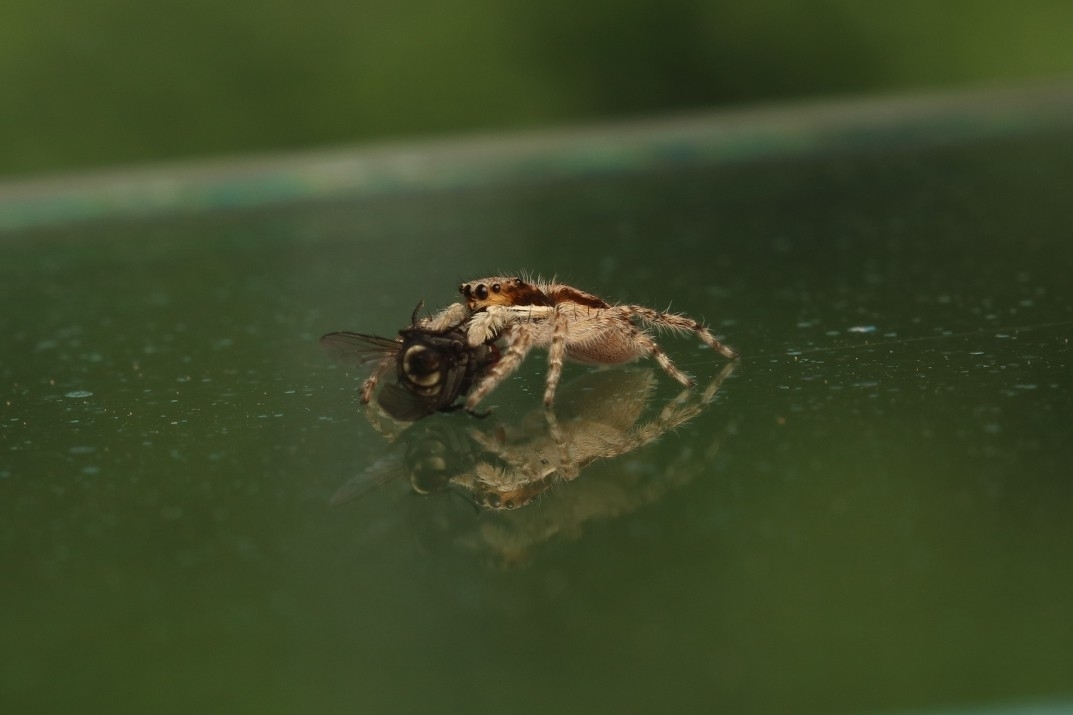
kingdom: Animalia
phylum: Arthropoda
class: Arachnida
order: Araneae
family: Salticidae
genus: Menemerus
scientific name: Menemerus bivittatus
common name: Gray wall jumper
